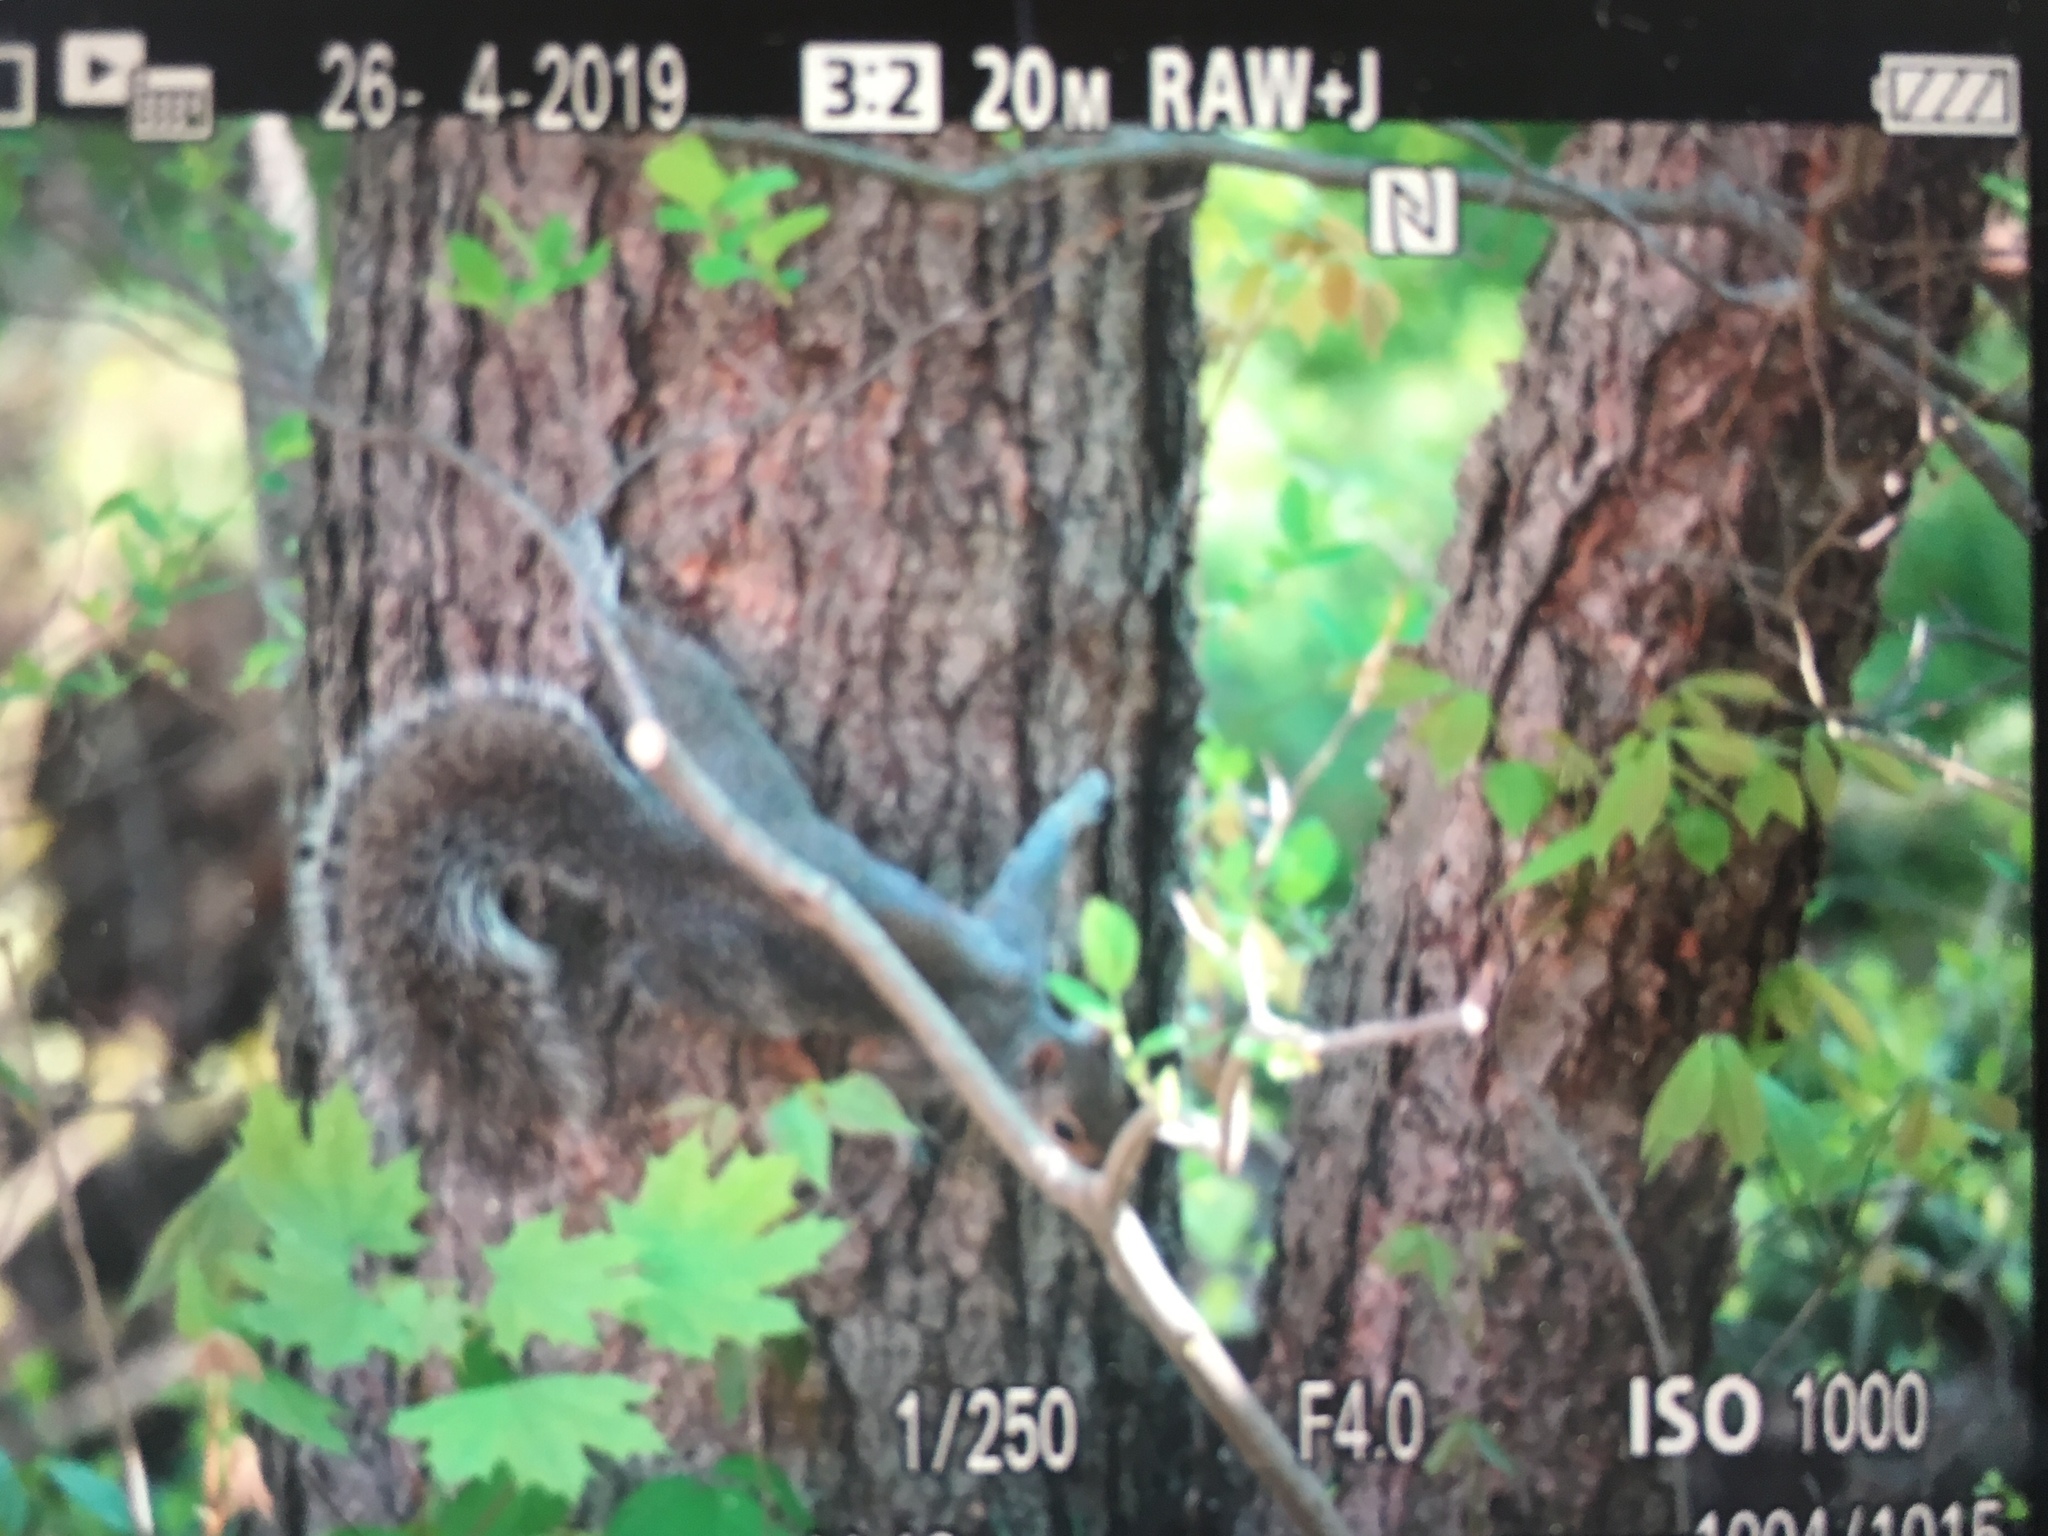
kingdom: Animalia
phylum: Chordata
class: Mammalia
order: Rodentia
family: Sciuridae
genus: Sciurus
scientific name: Sciurus carolinensis
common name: Eastern gray squirrel
